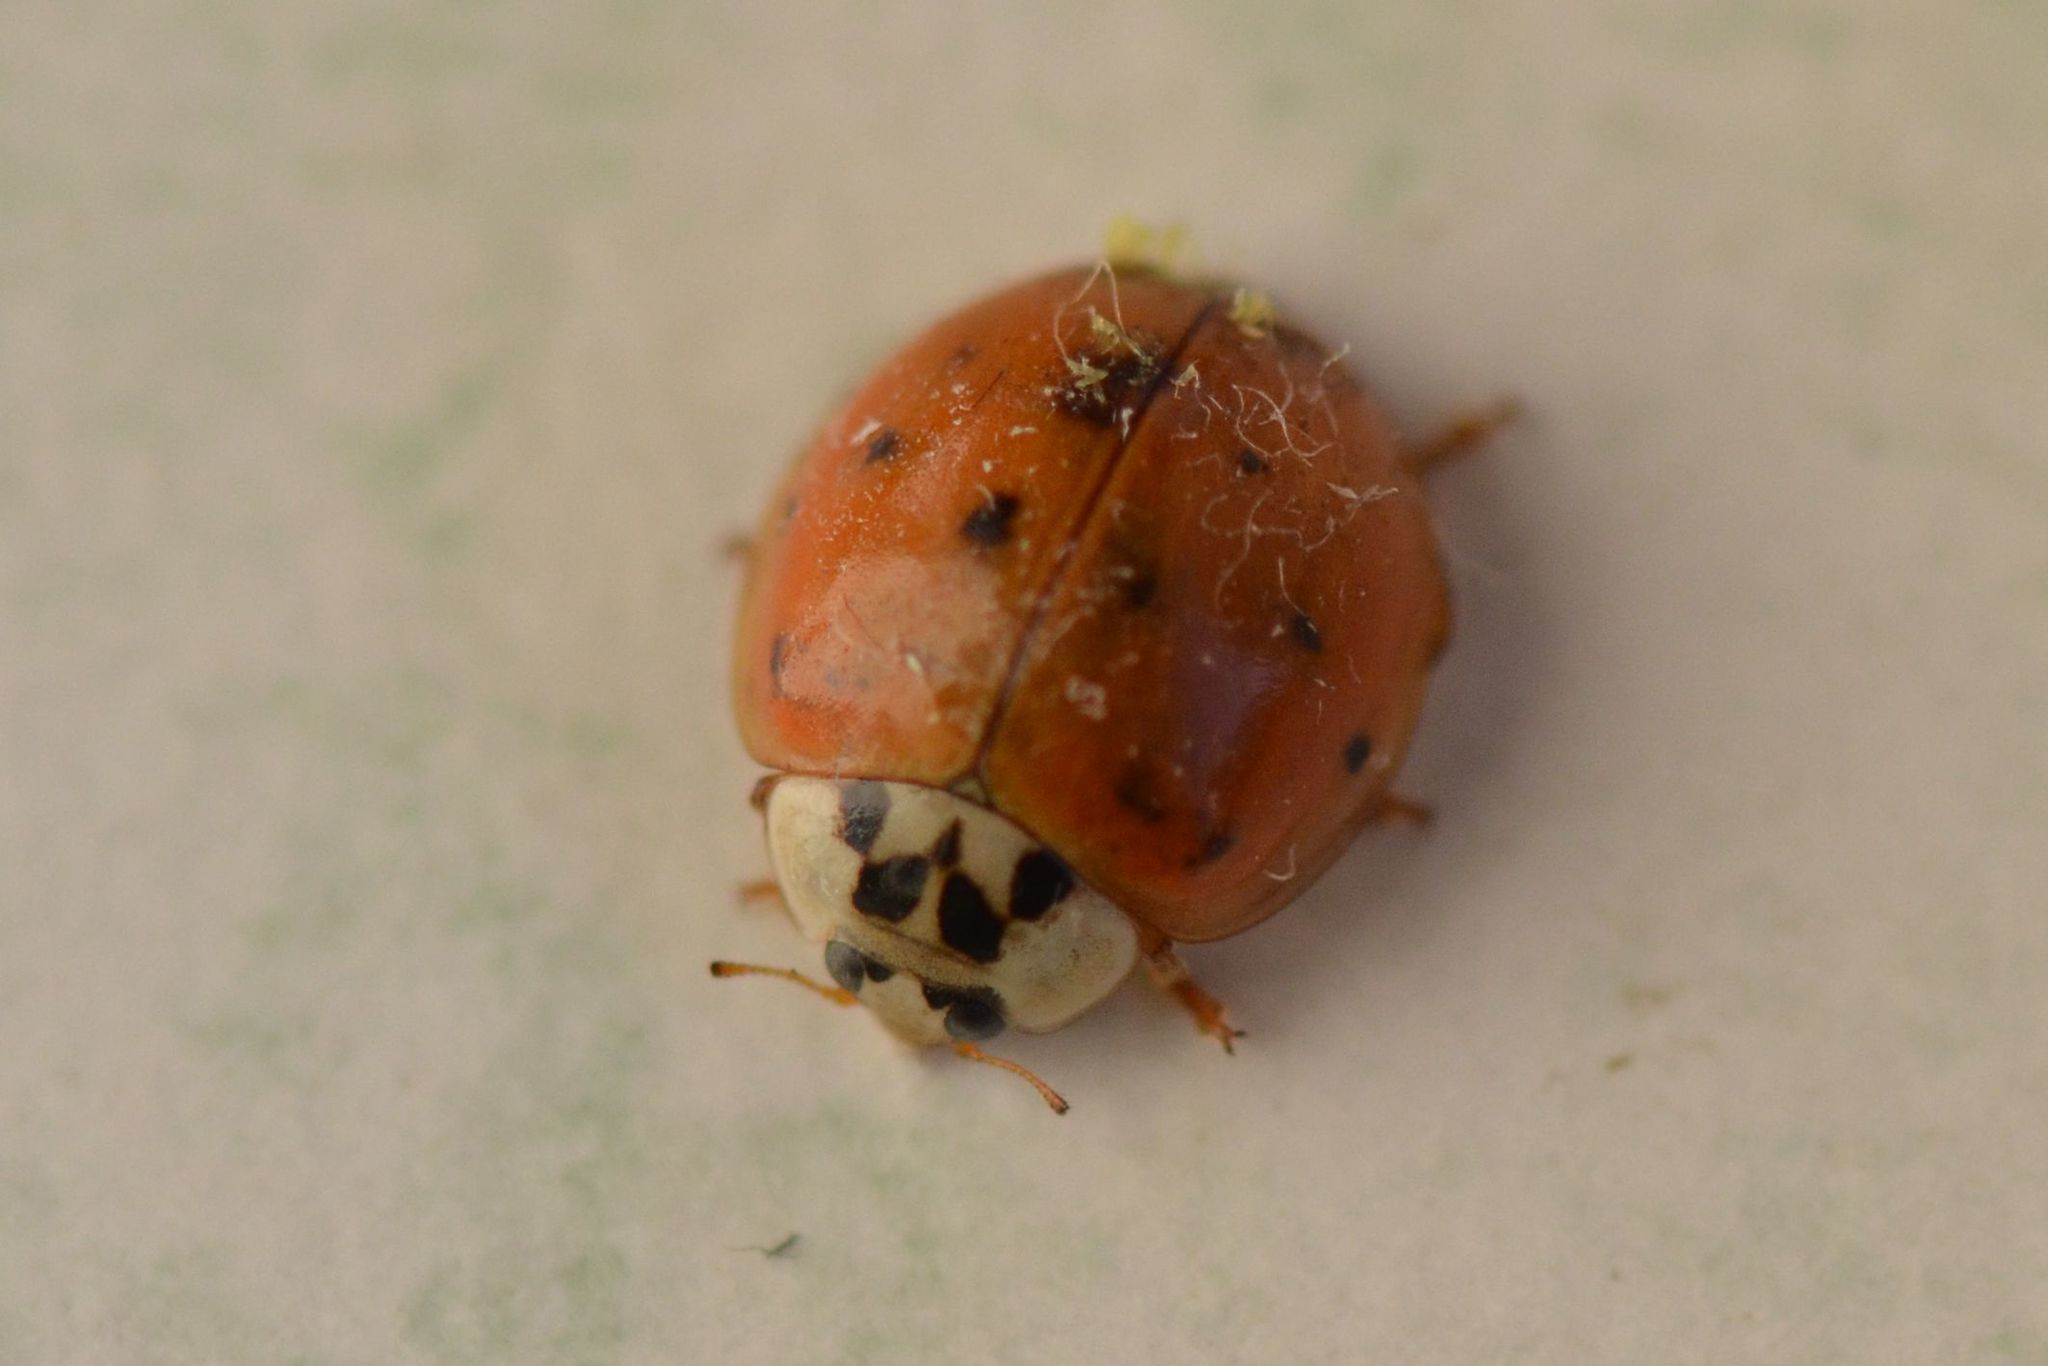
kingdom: Animalia
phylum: Arthropoda
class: Insecta
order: Coleoptera
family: Coccinellidae
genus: Harmonia
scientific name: Harmonia axyridis
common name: Harlequin ladybird
